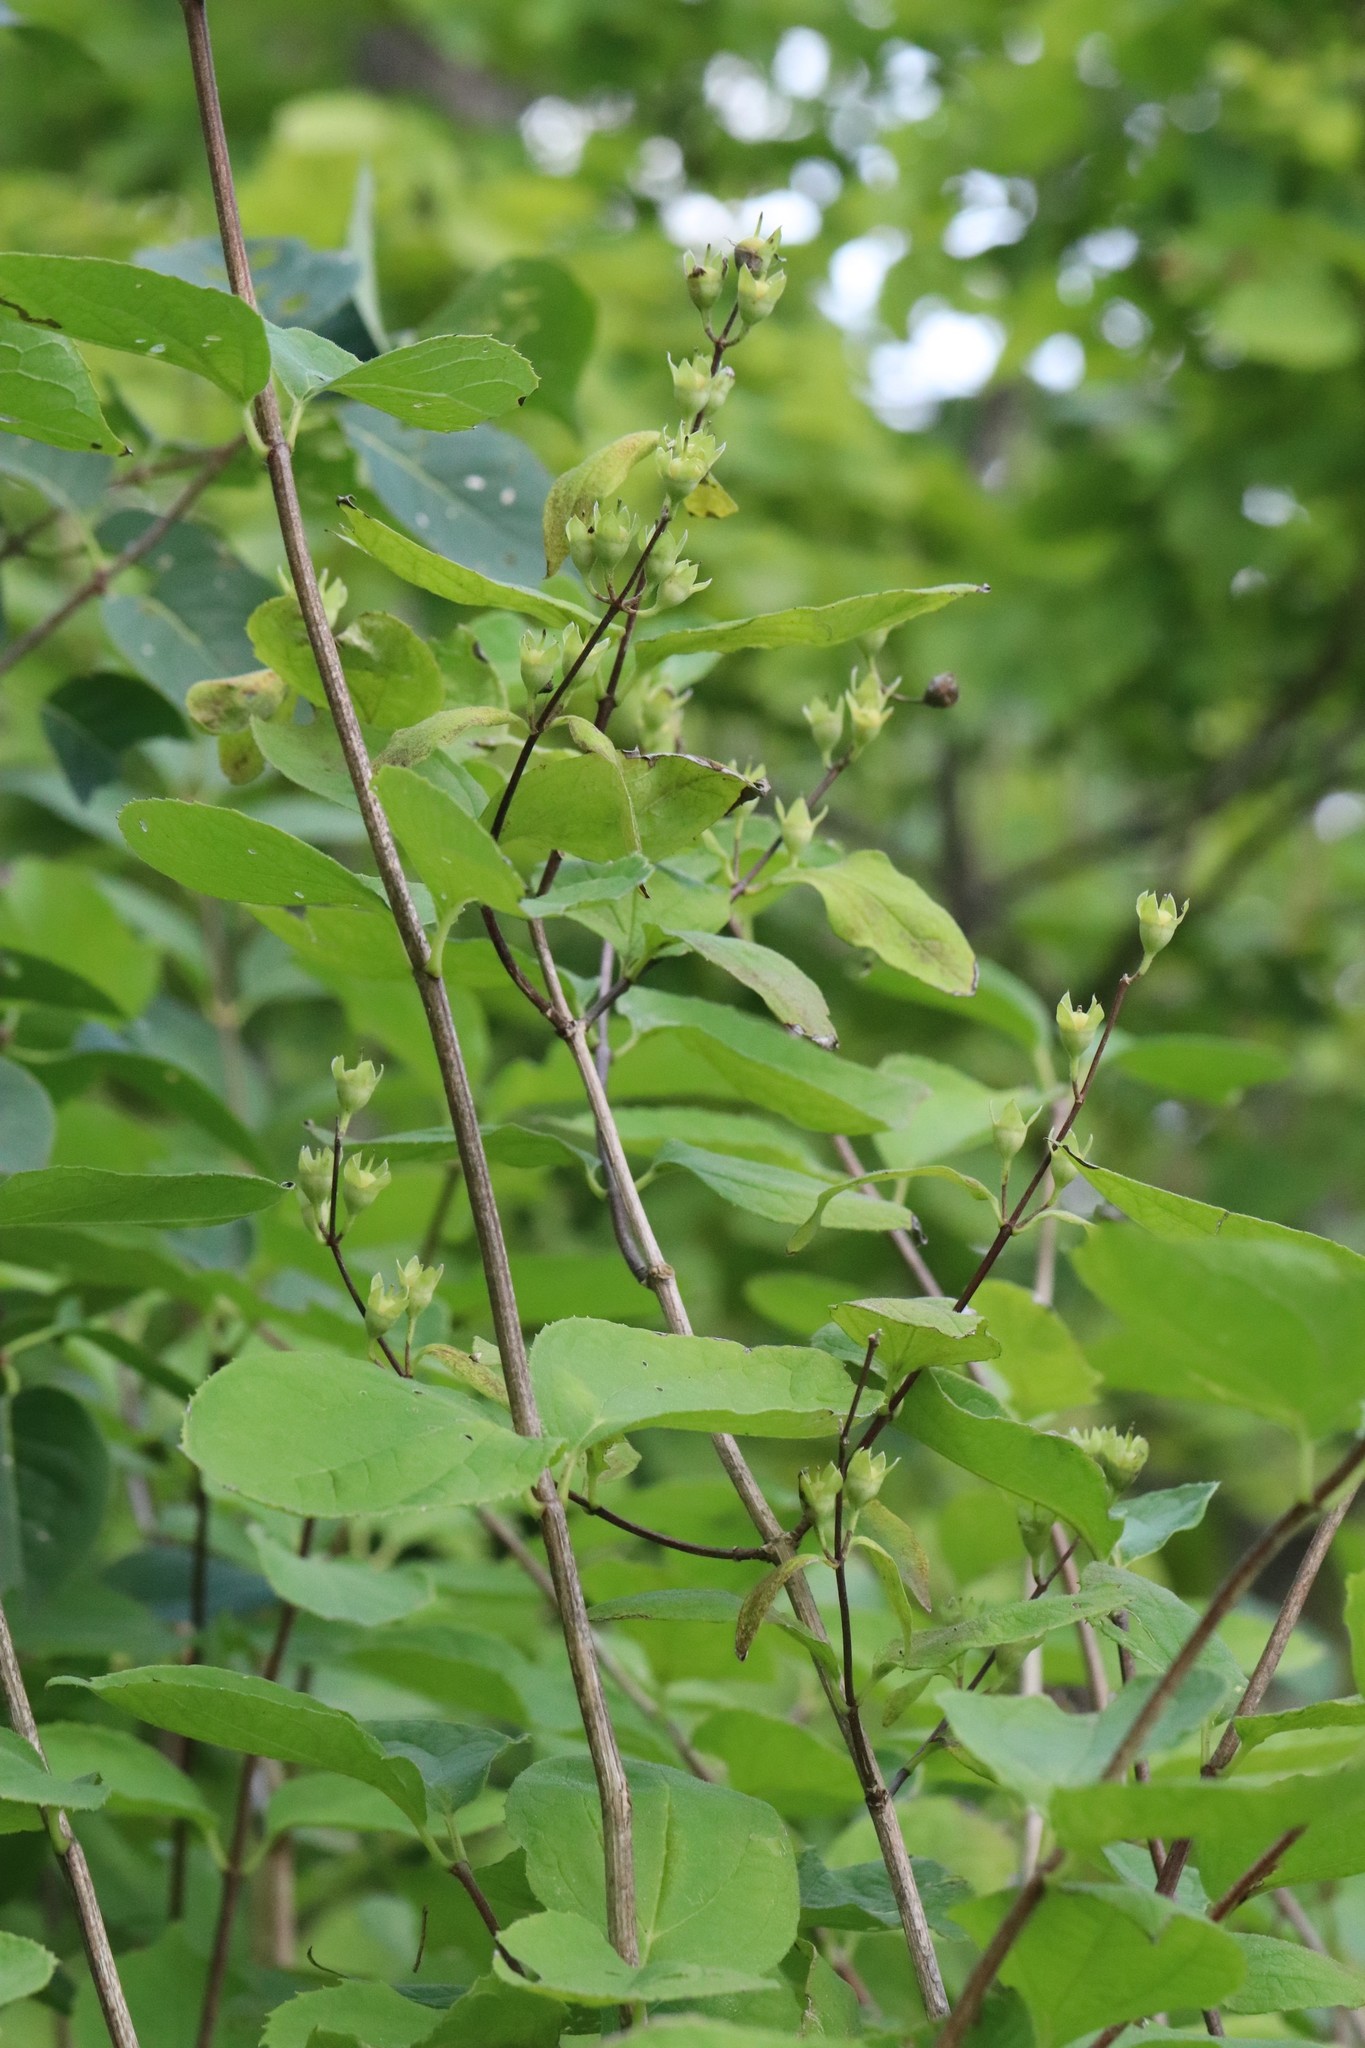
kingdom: Plantae
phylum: Tracheophyta
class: Magnoliopsida
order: Cornales
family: Hydrangeaceae
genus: Philadelphus
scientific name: Philadelphus tenuifolius
